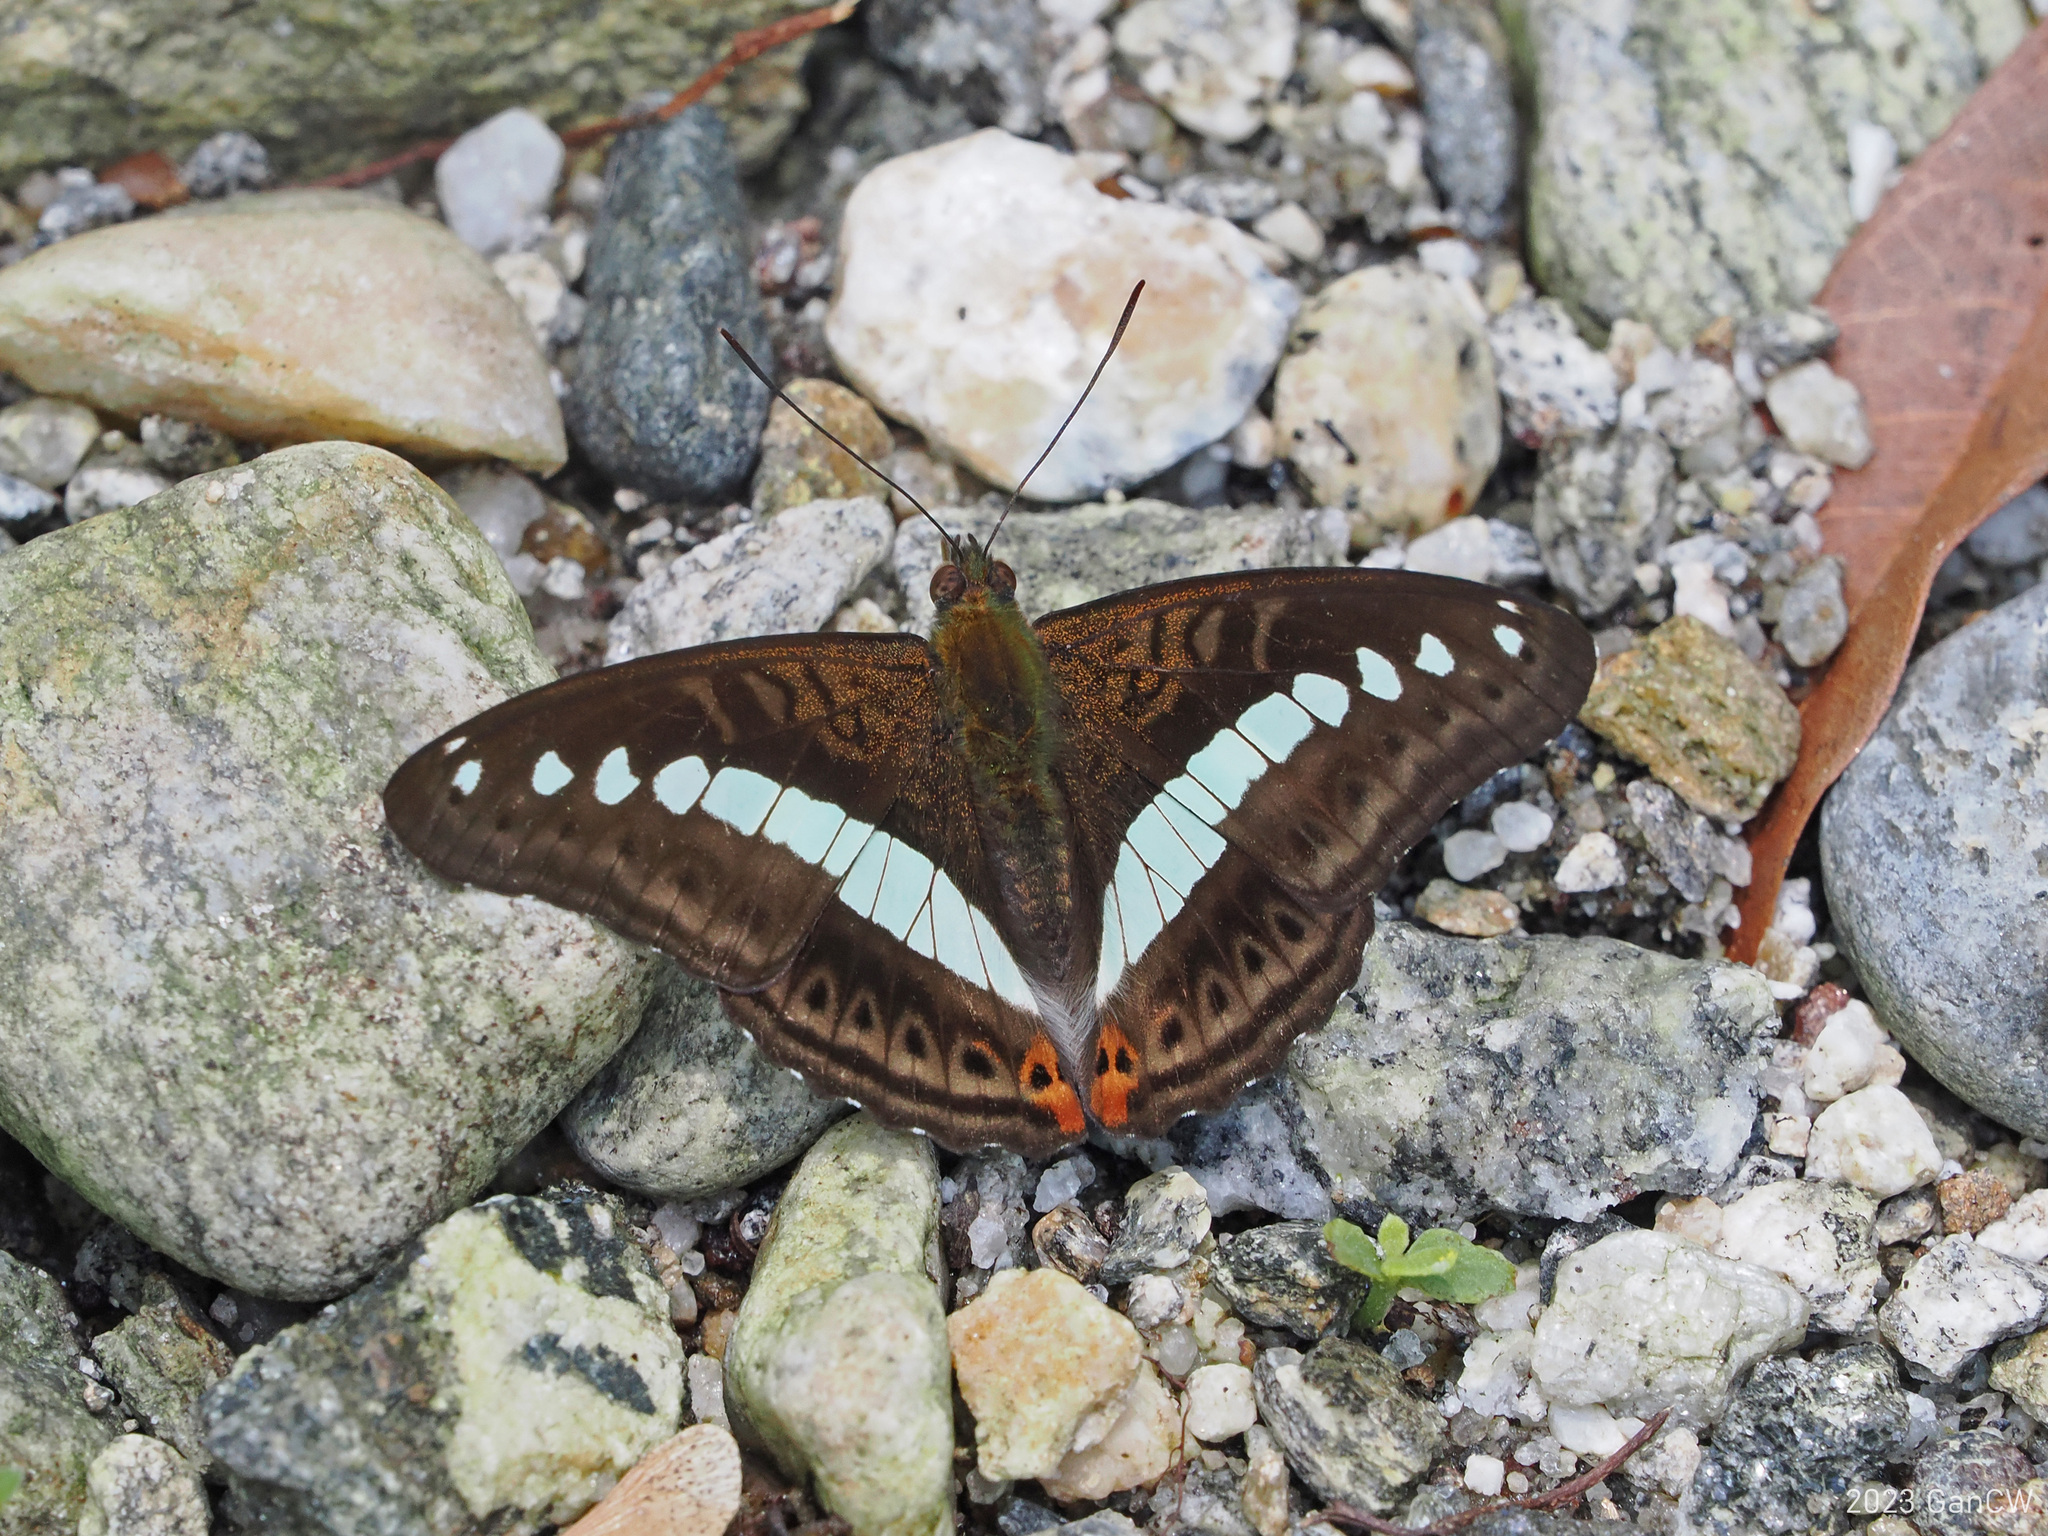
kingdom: Animalia
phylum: Arthropoda
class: Insecta
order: Lepidoptera
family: Nymphalidae
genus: Limenitis
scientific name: Limenitis Sumalia daraxa
